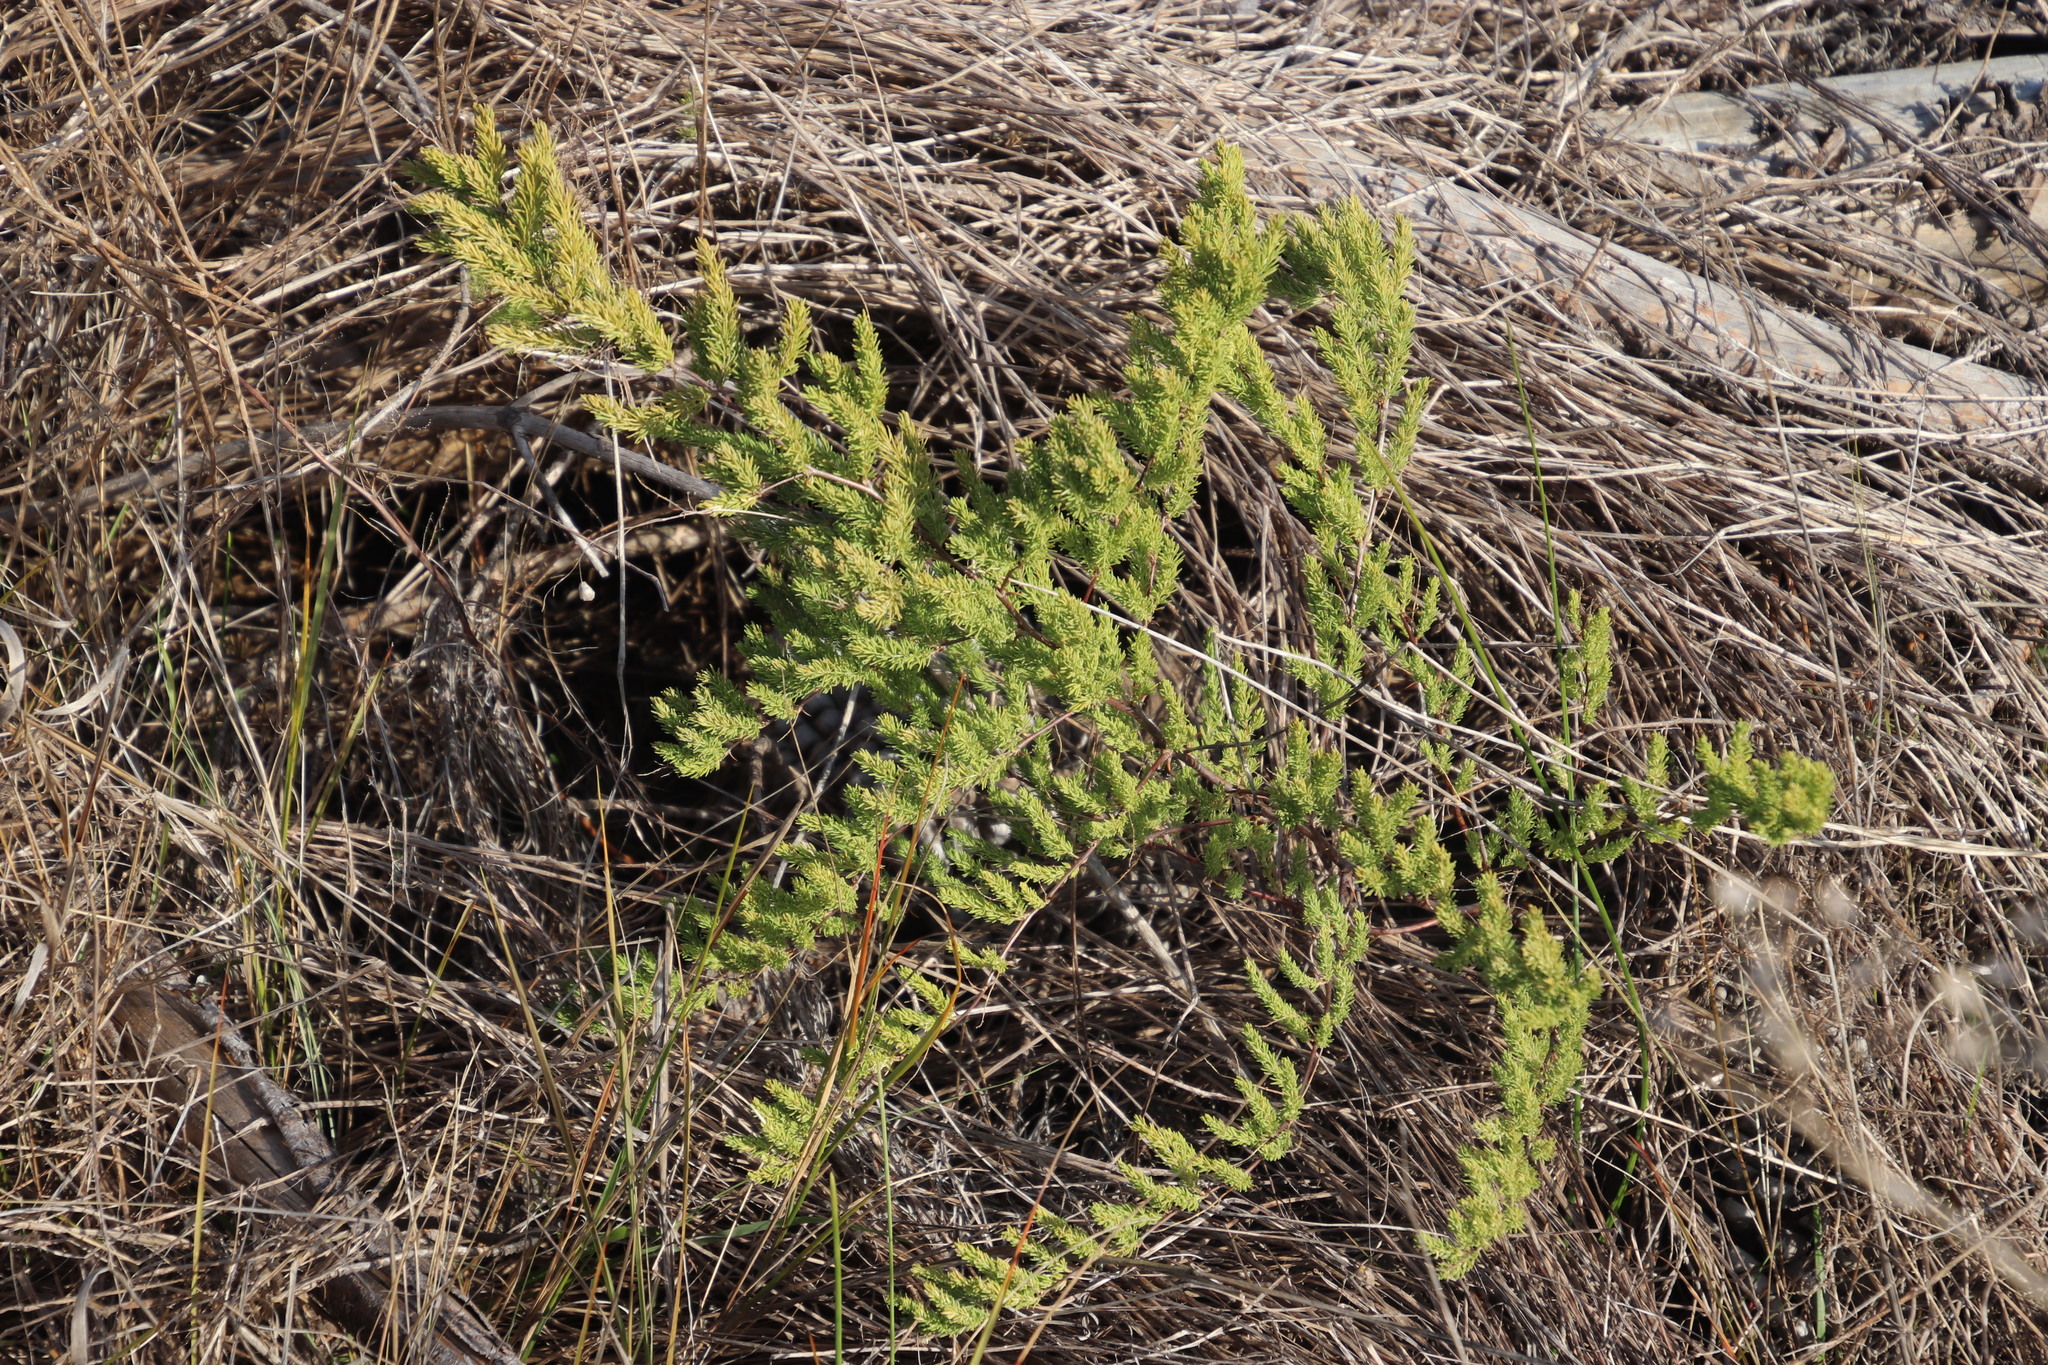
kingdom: Plantae
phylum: Tracheophyta
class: Liliopsida
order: Asparagales
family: Asparagaceae
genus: Asparagus
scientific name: Asparagus rubicundus
